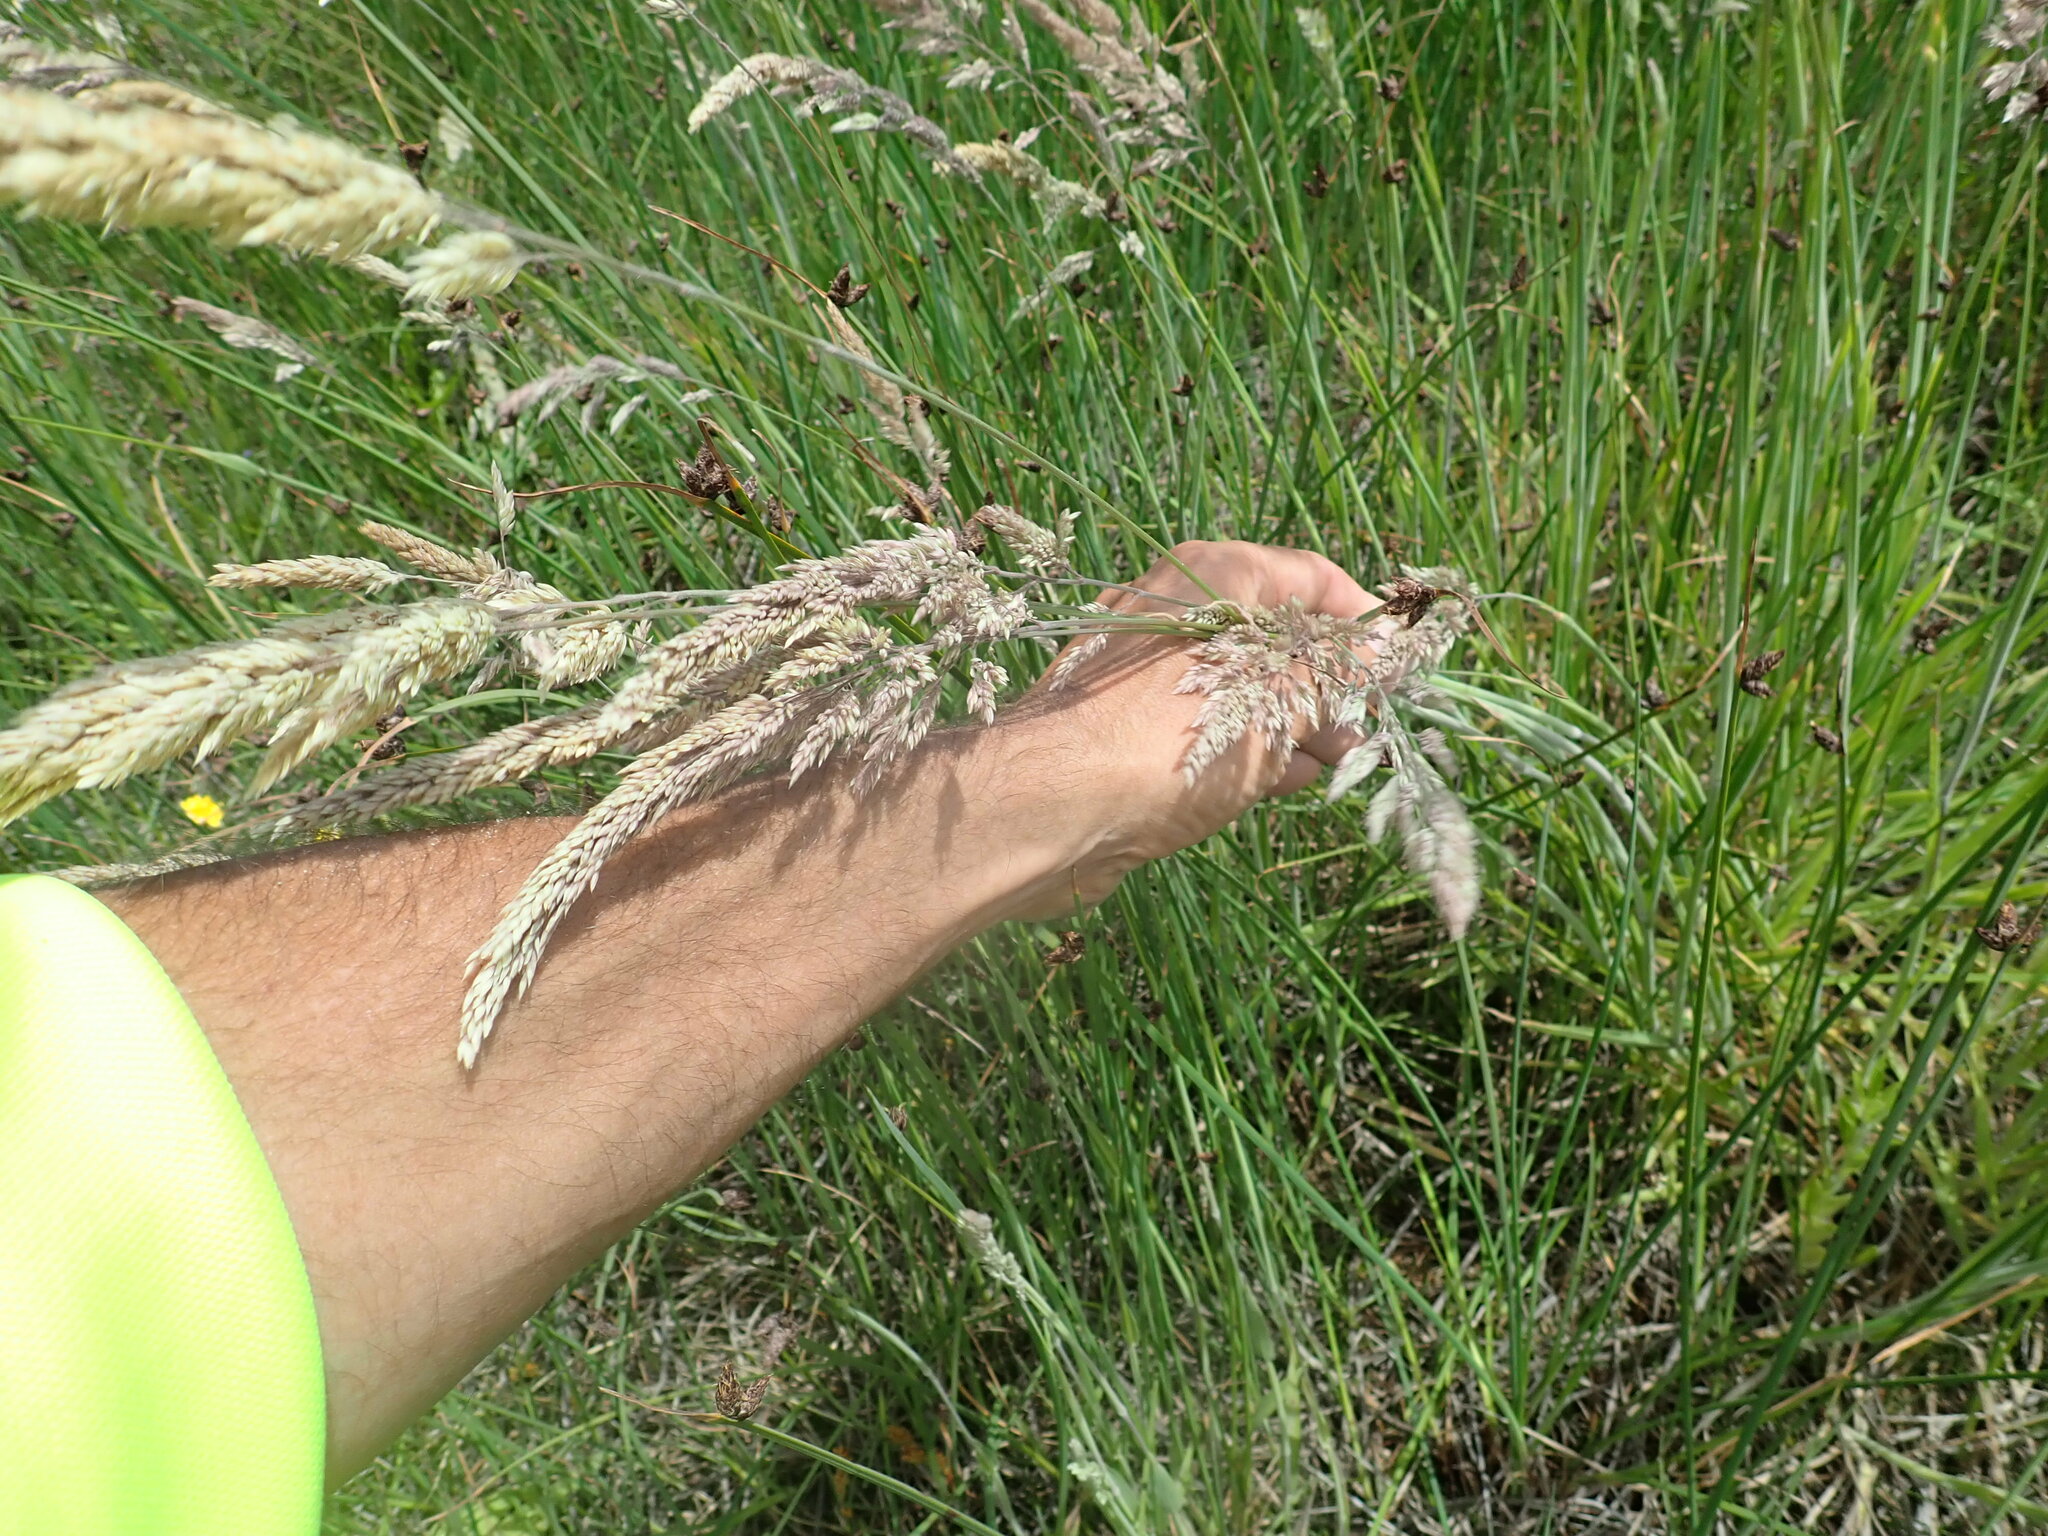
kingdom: Plantae
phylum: Tracheophyta
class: Liliopsida
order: Poales
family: Poaceae
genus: Holcus
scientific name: Holcus lanatus
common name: Yorkshire-fog
